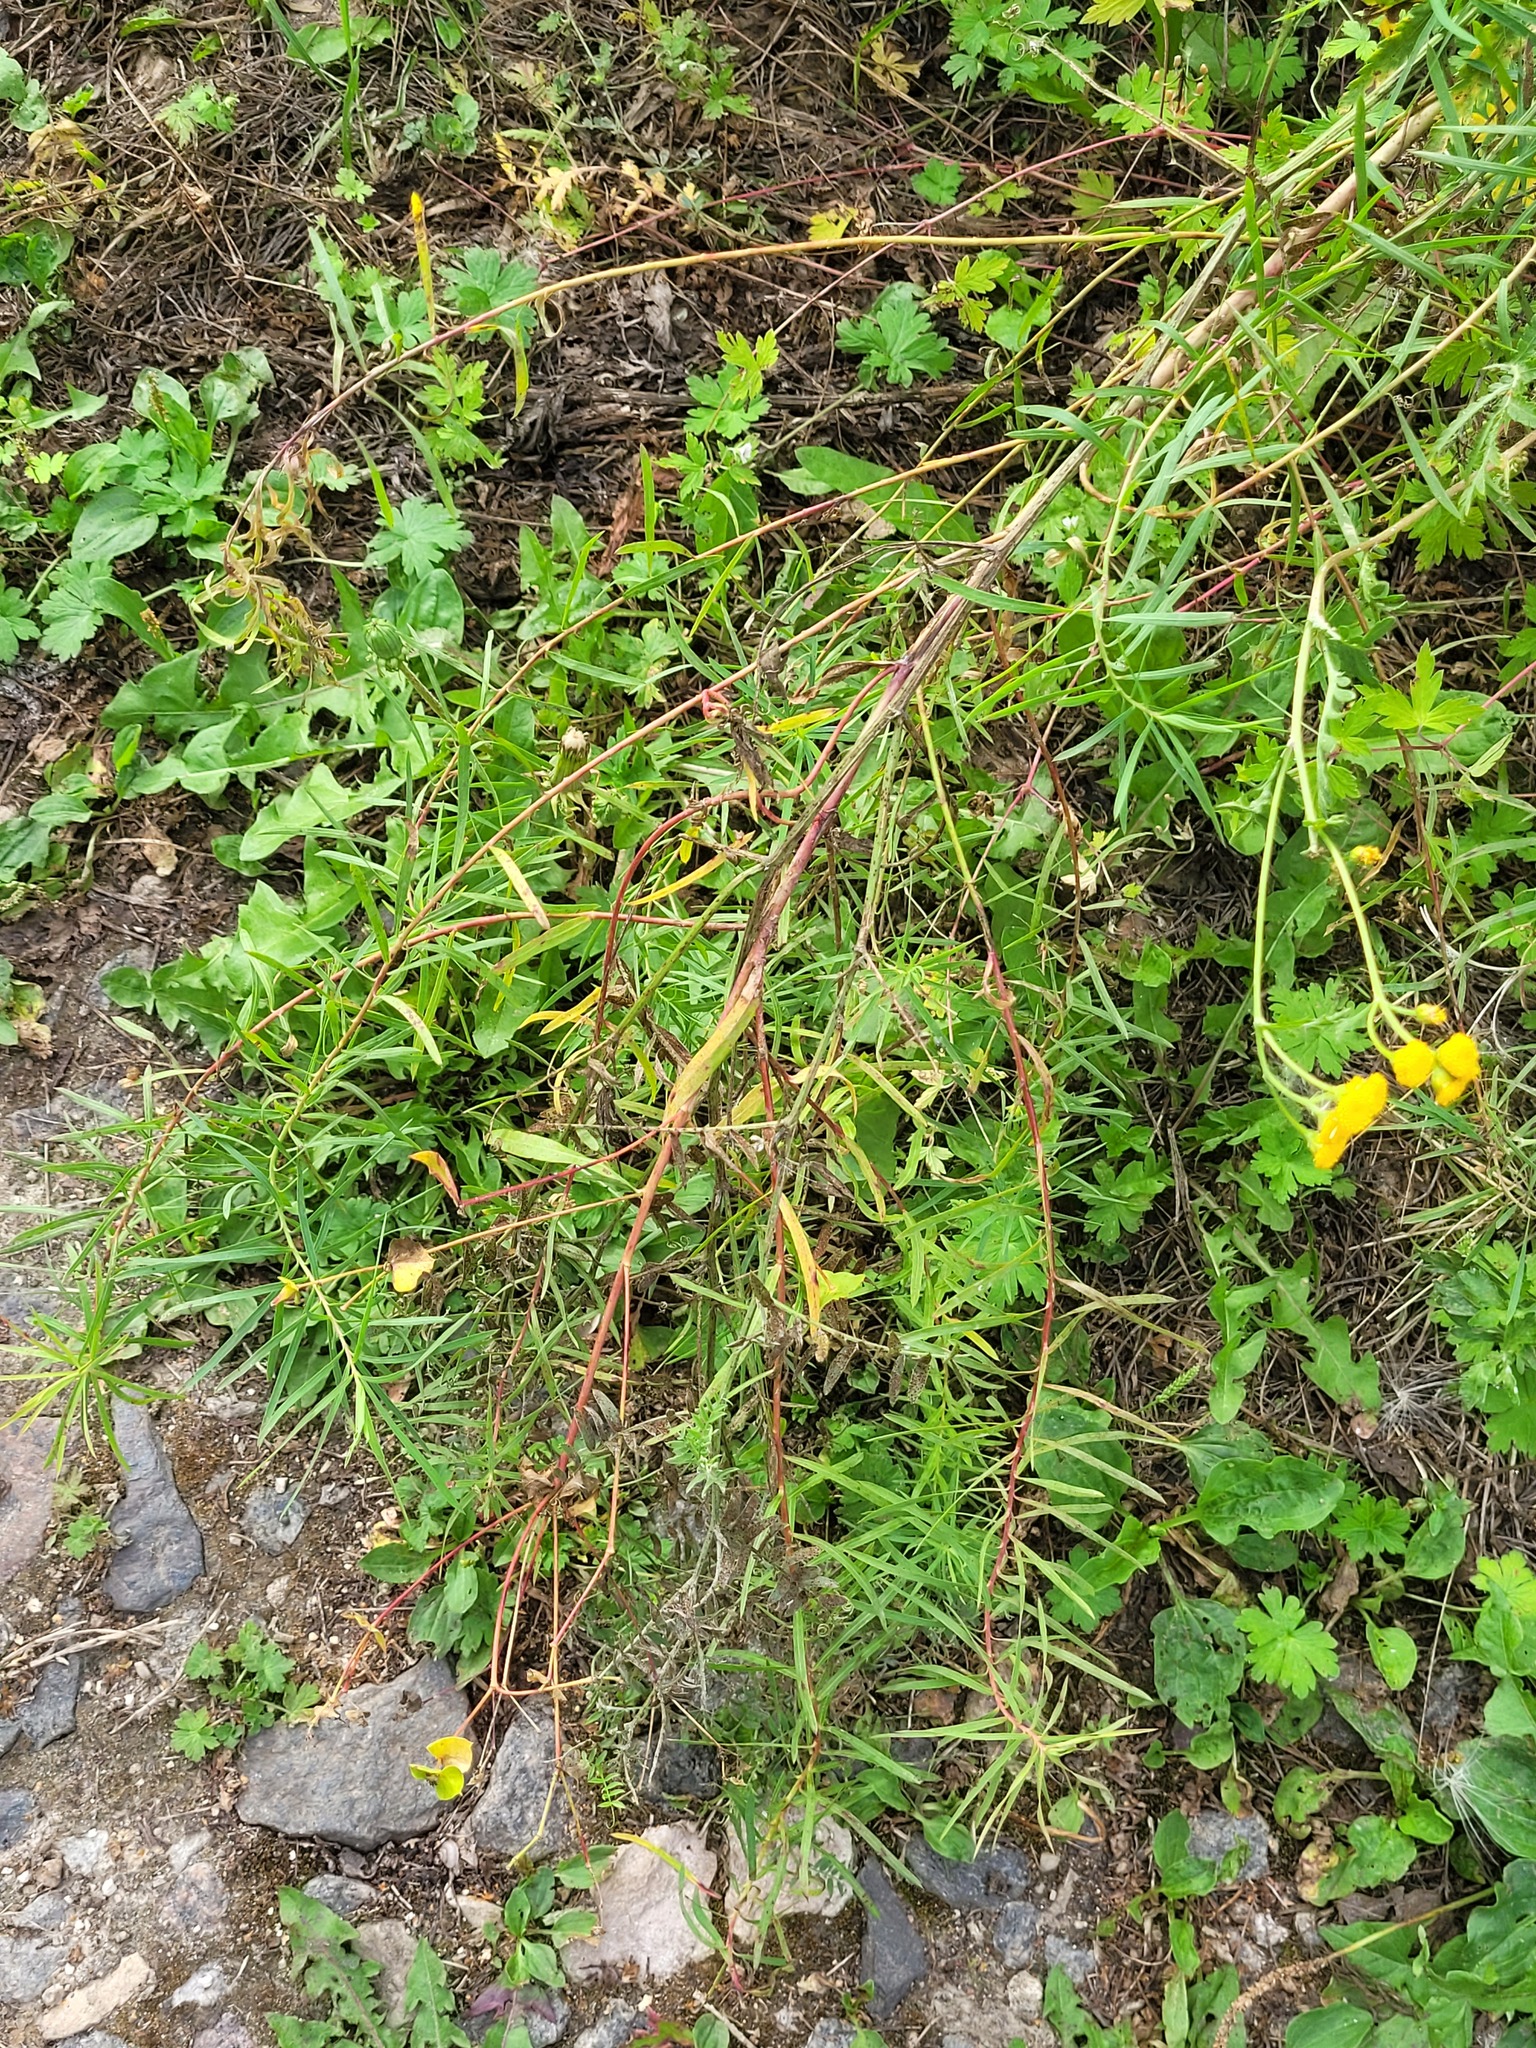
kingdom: Plantae
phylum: Tracheophyta
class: Magnoliopsida
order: Malpighiales
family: Euphorbiaceae
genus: Euphorbia
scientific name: Euphorbia virgata
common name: Leafy spurge
